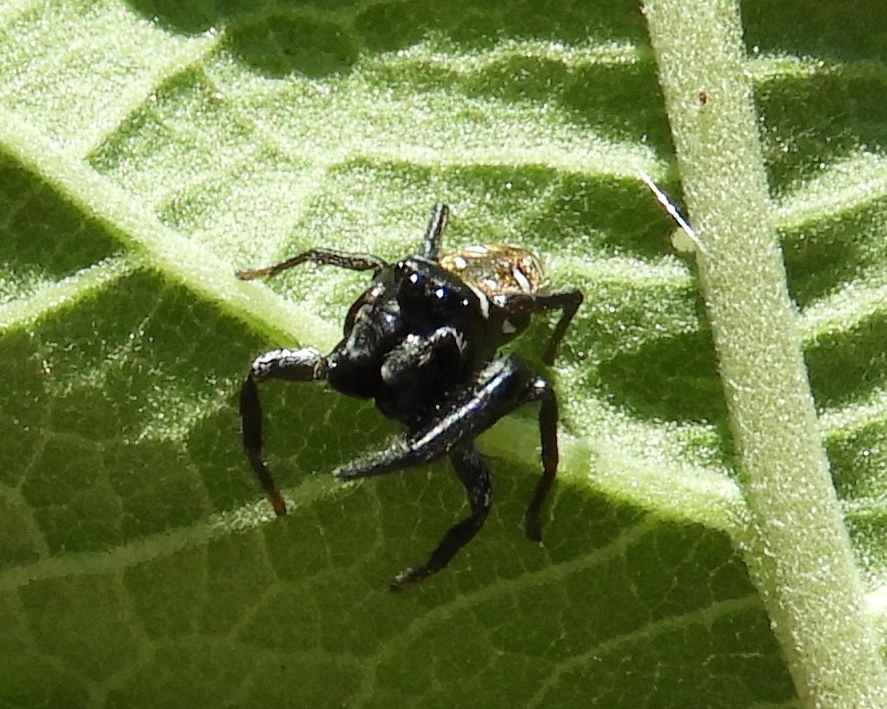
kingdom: Animalia
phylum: Arthropoda
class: Arachnida
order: Araneae
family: Salticidae
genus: Sassacus
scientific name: Sassacus
